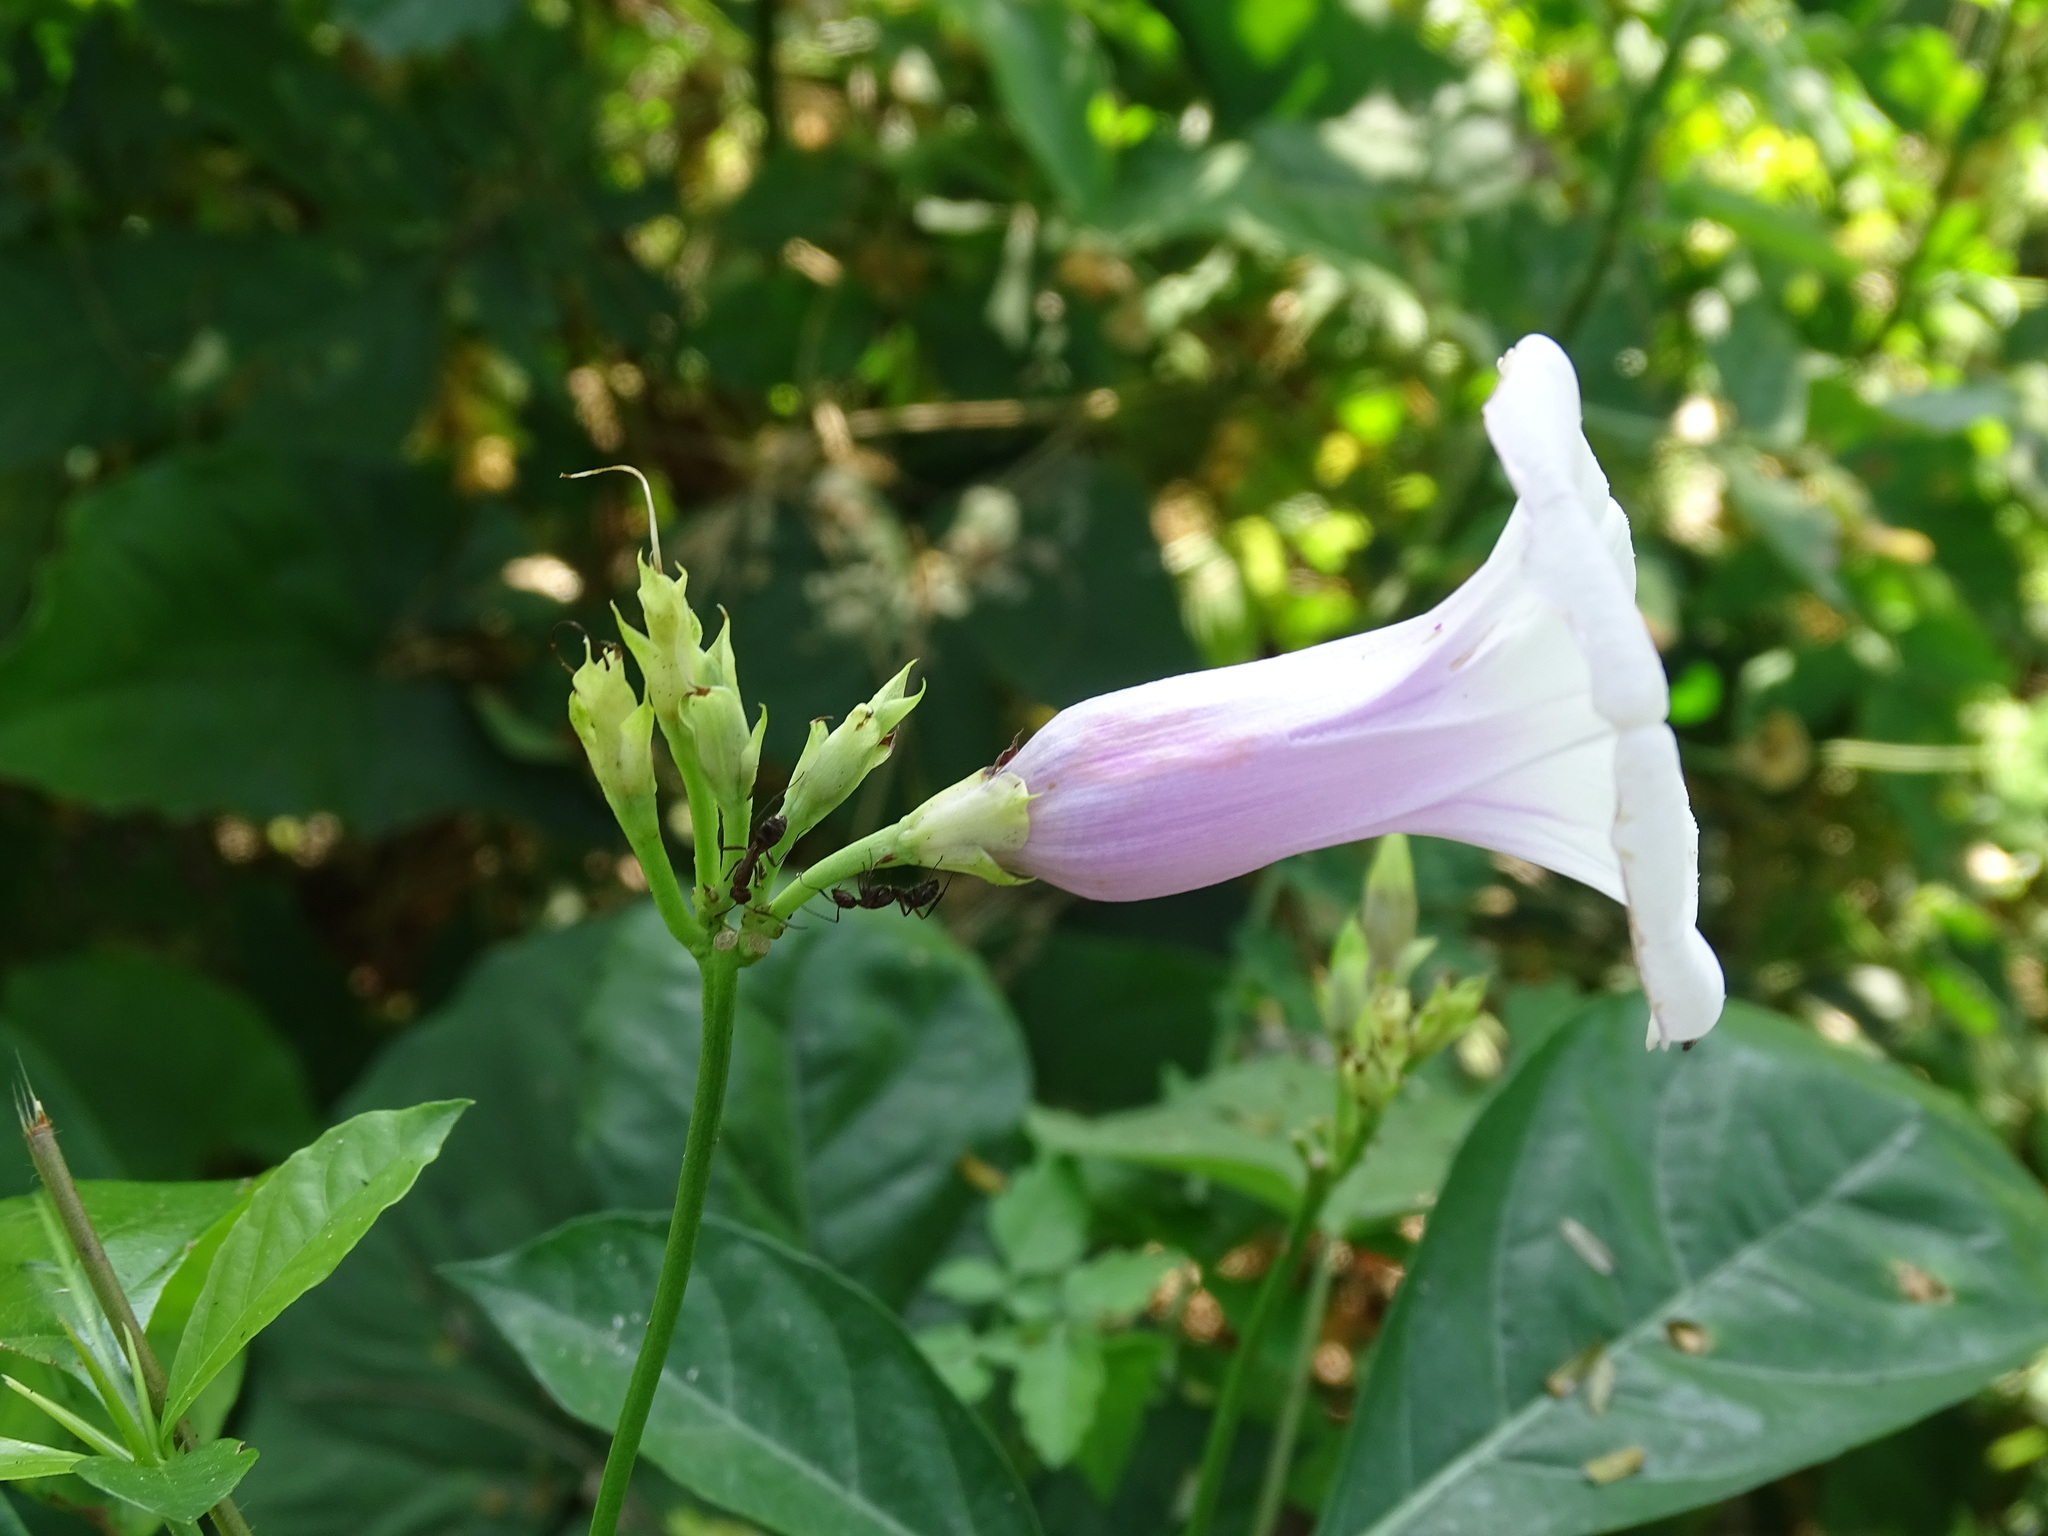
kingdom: Plantae
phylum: Tracheophyta
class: Magnoliopsida
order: Solanales
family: Convolvulaceae
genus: Ipomoea
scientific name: Ipomoea batatas
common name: Sweet-potato
